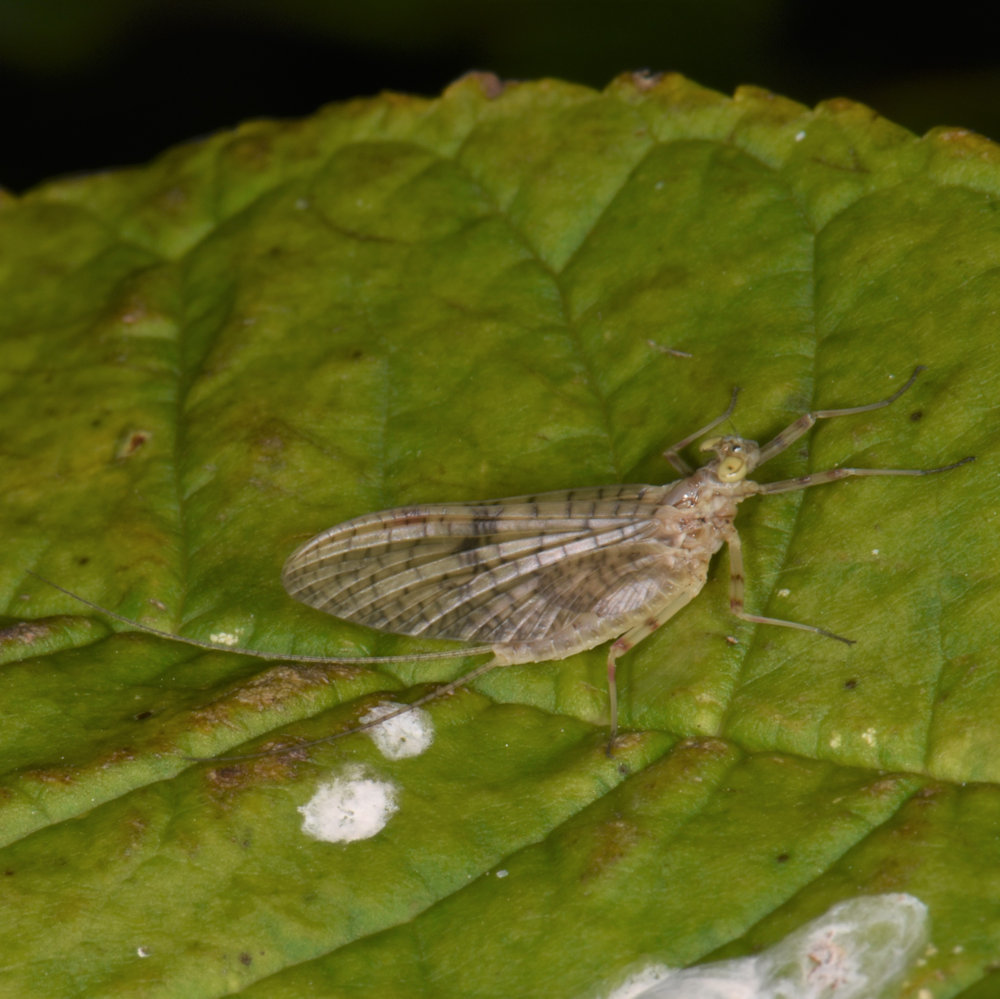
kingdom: Animalia
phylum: Arthropoda
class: Insecta
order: Ephemeroptera
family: Heptageniidae
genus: Stenonema
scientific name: Stenonema femoratum
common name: Dark cahill
